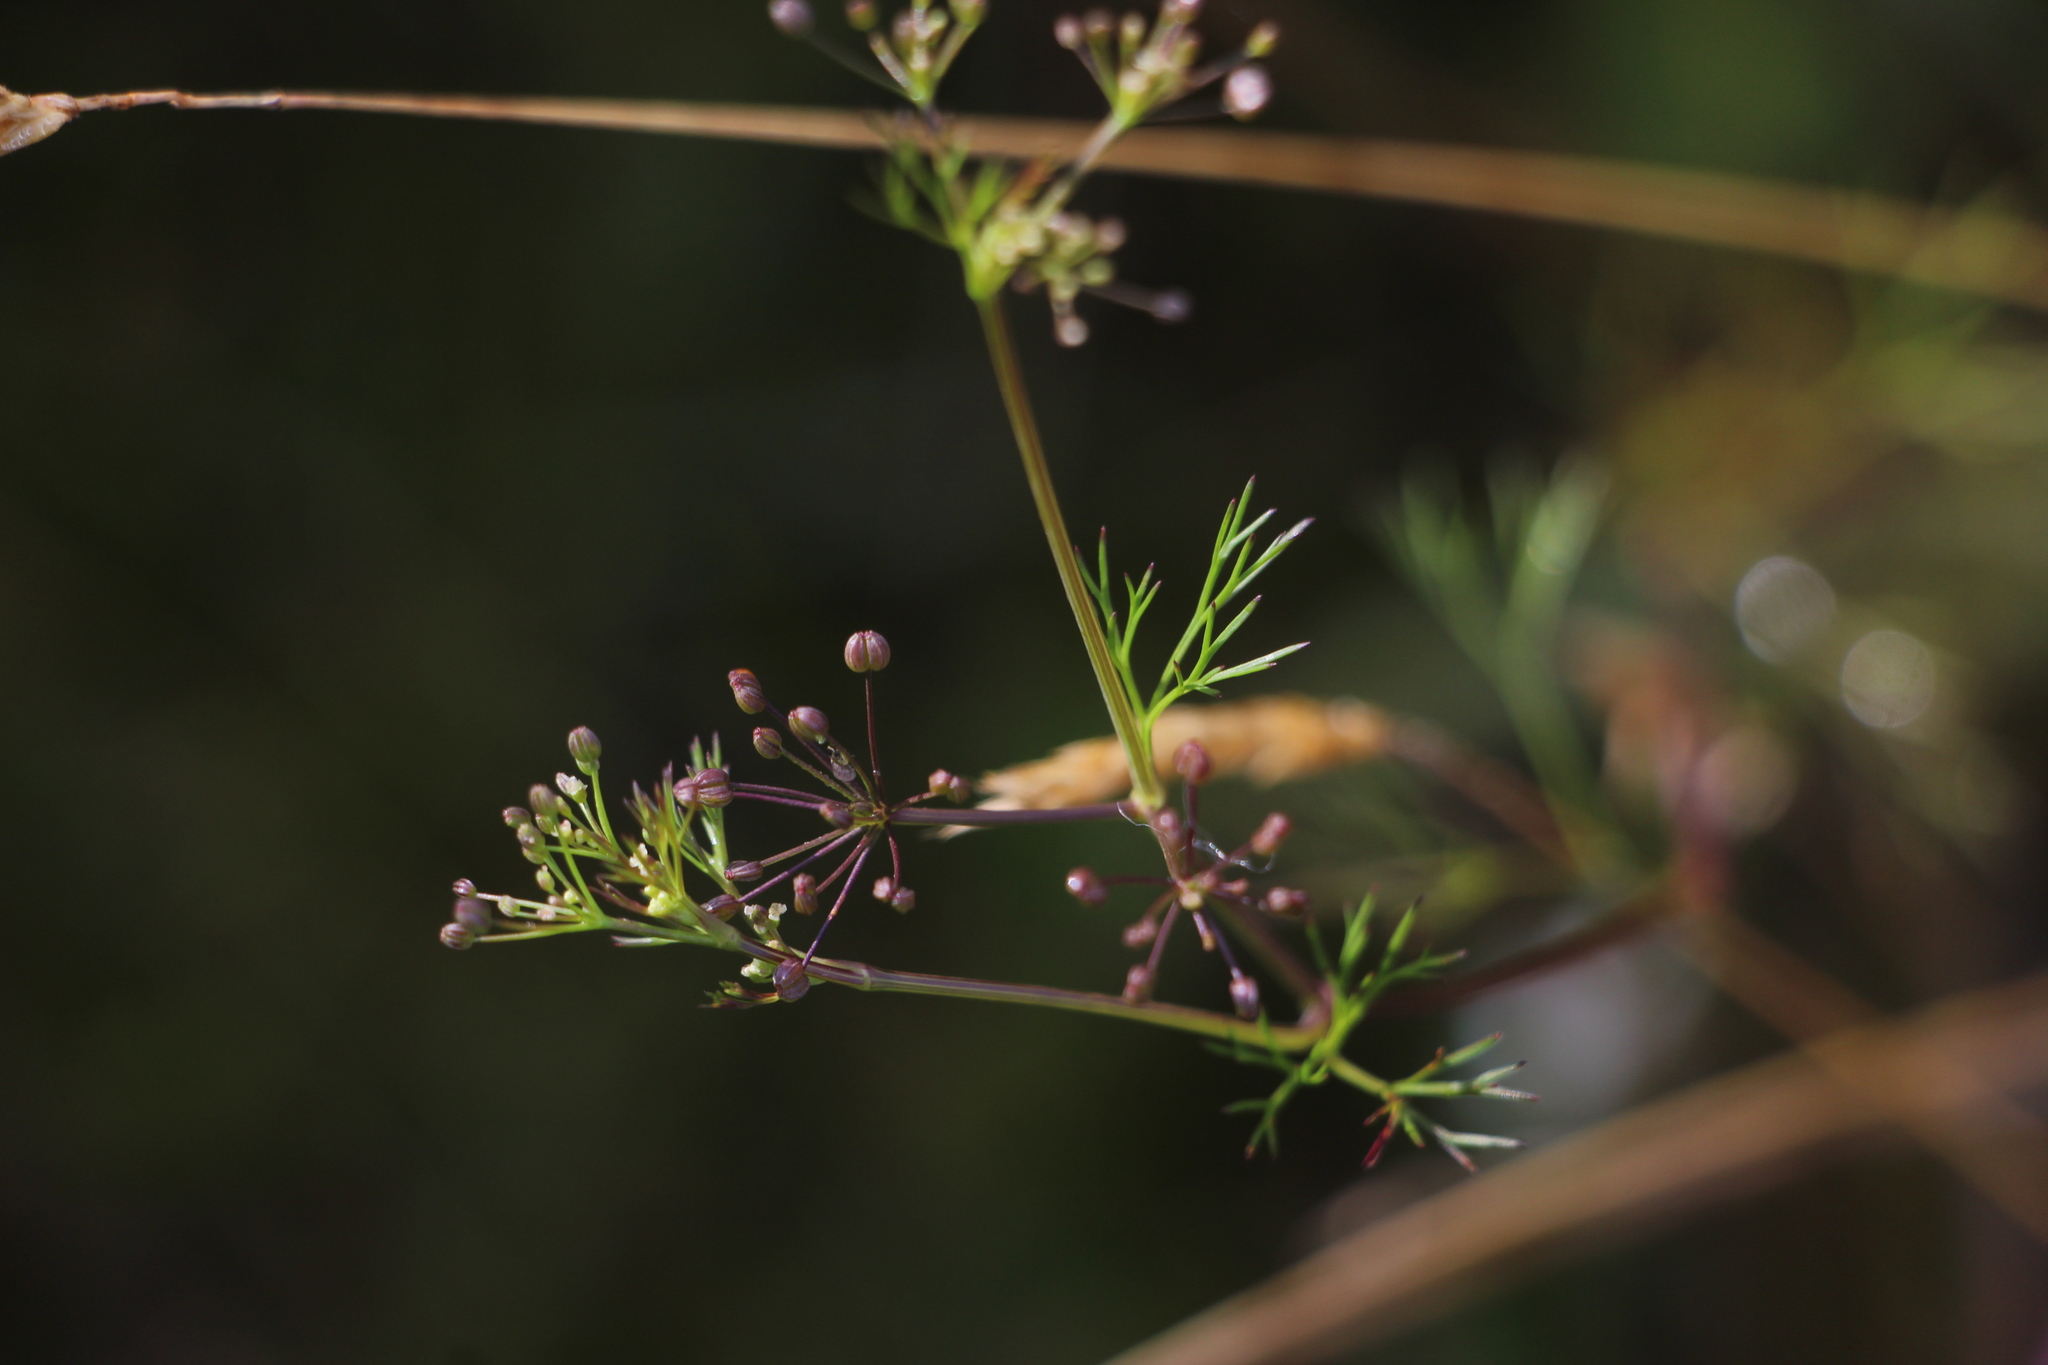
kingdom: Plantae
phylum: Tracheophyta
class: Magnoliopsida
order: Apiales
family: Apiaceae
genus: Cyclospermum
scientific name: Cyclospermum leptophyllum
